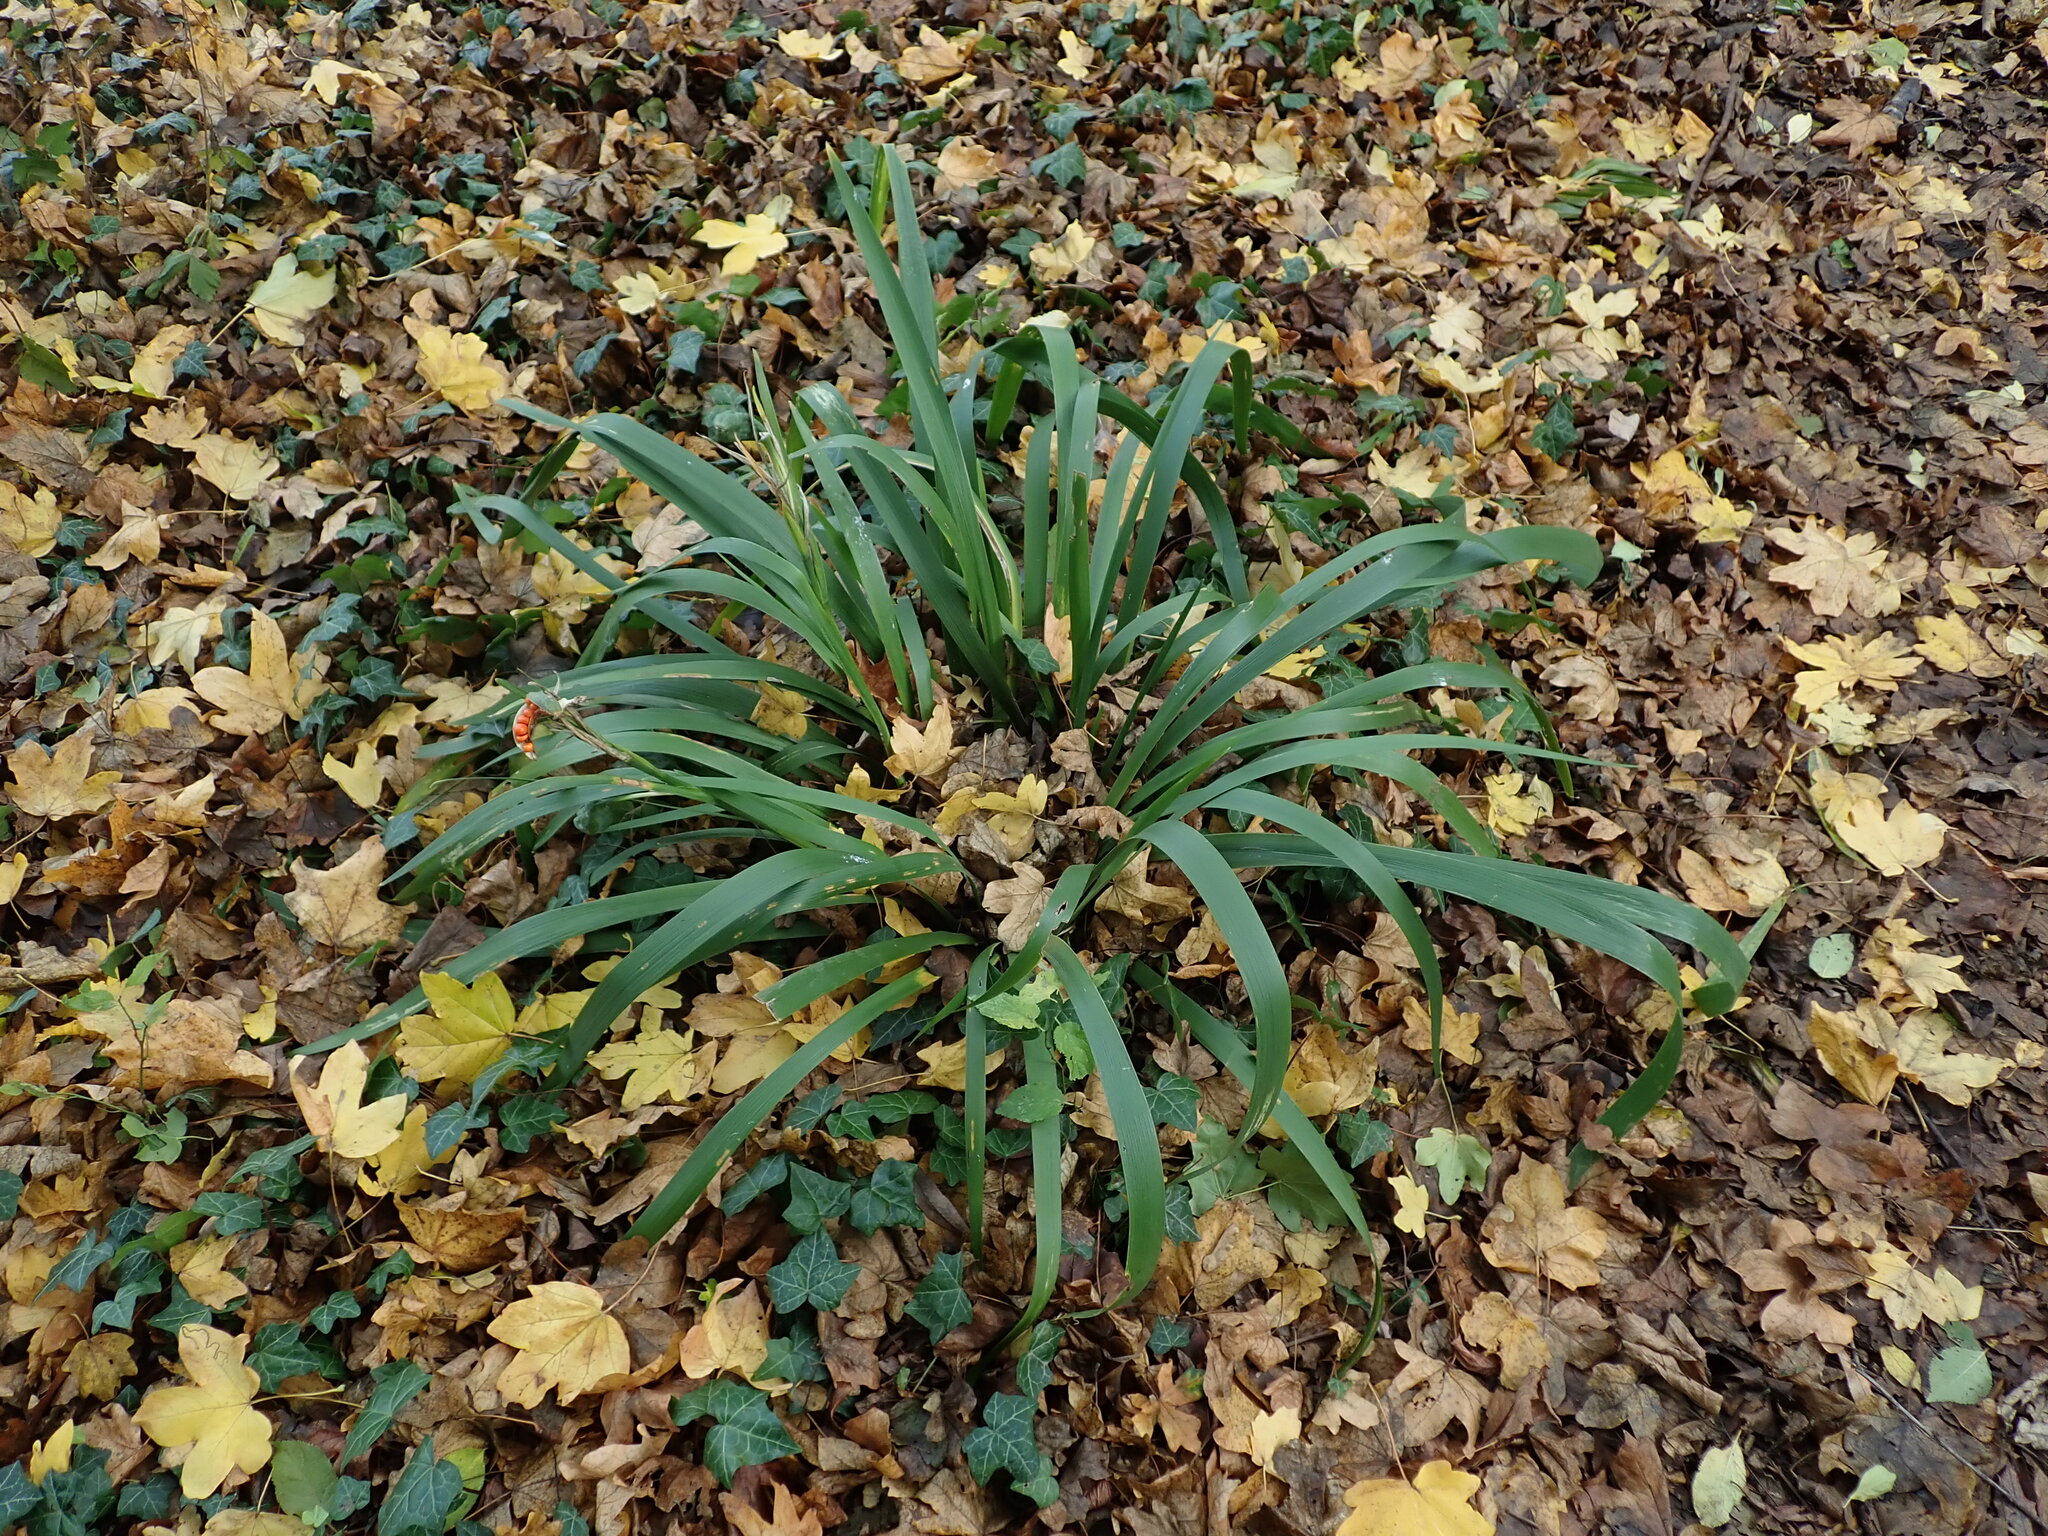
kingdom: Plantae
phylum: Tracheophyta
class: Liliopsida
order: Asparagales
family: Iridaceae
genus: Iris
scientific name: Iris foetidissima
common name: Stinking iris
